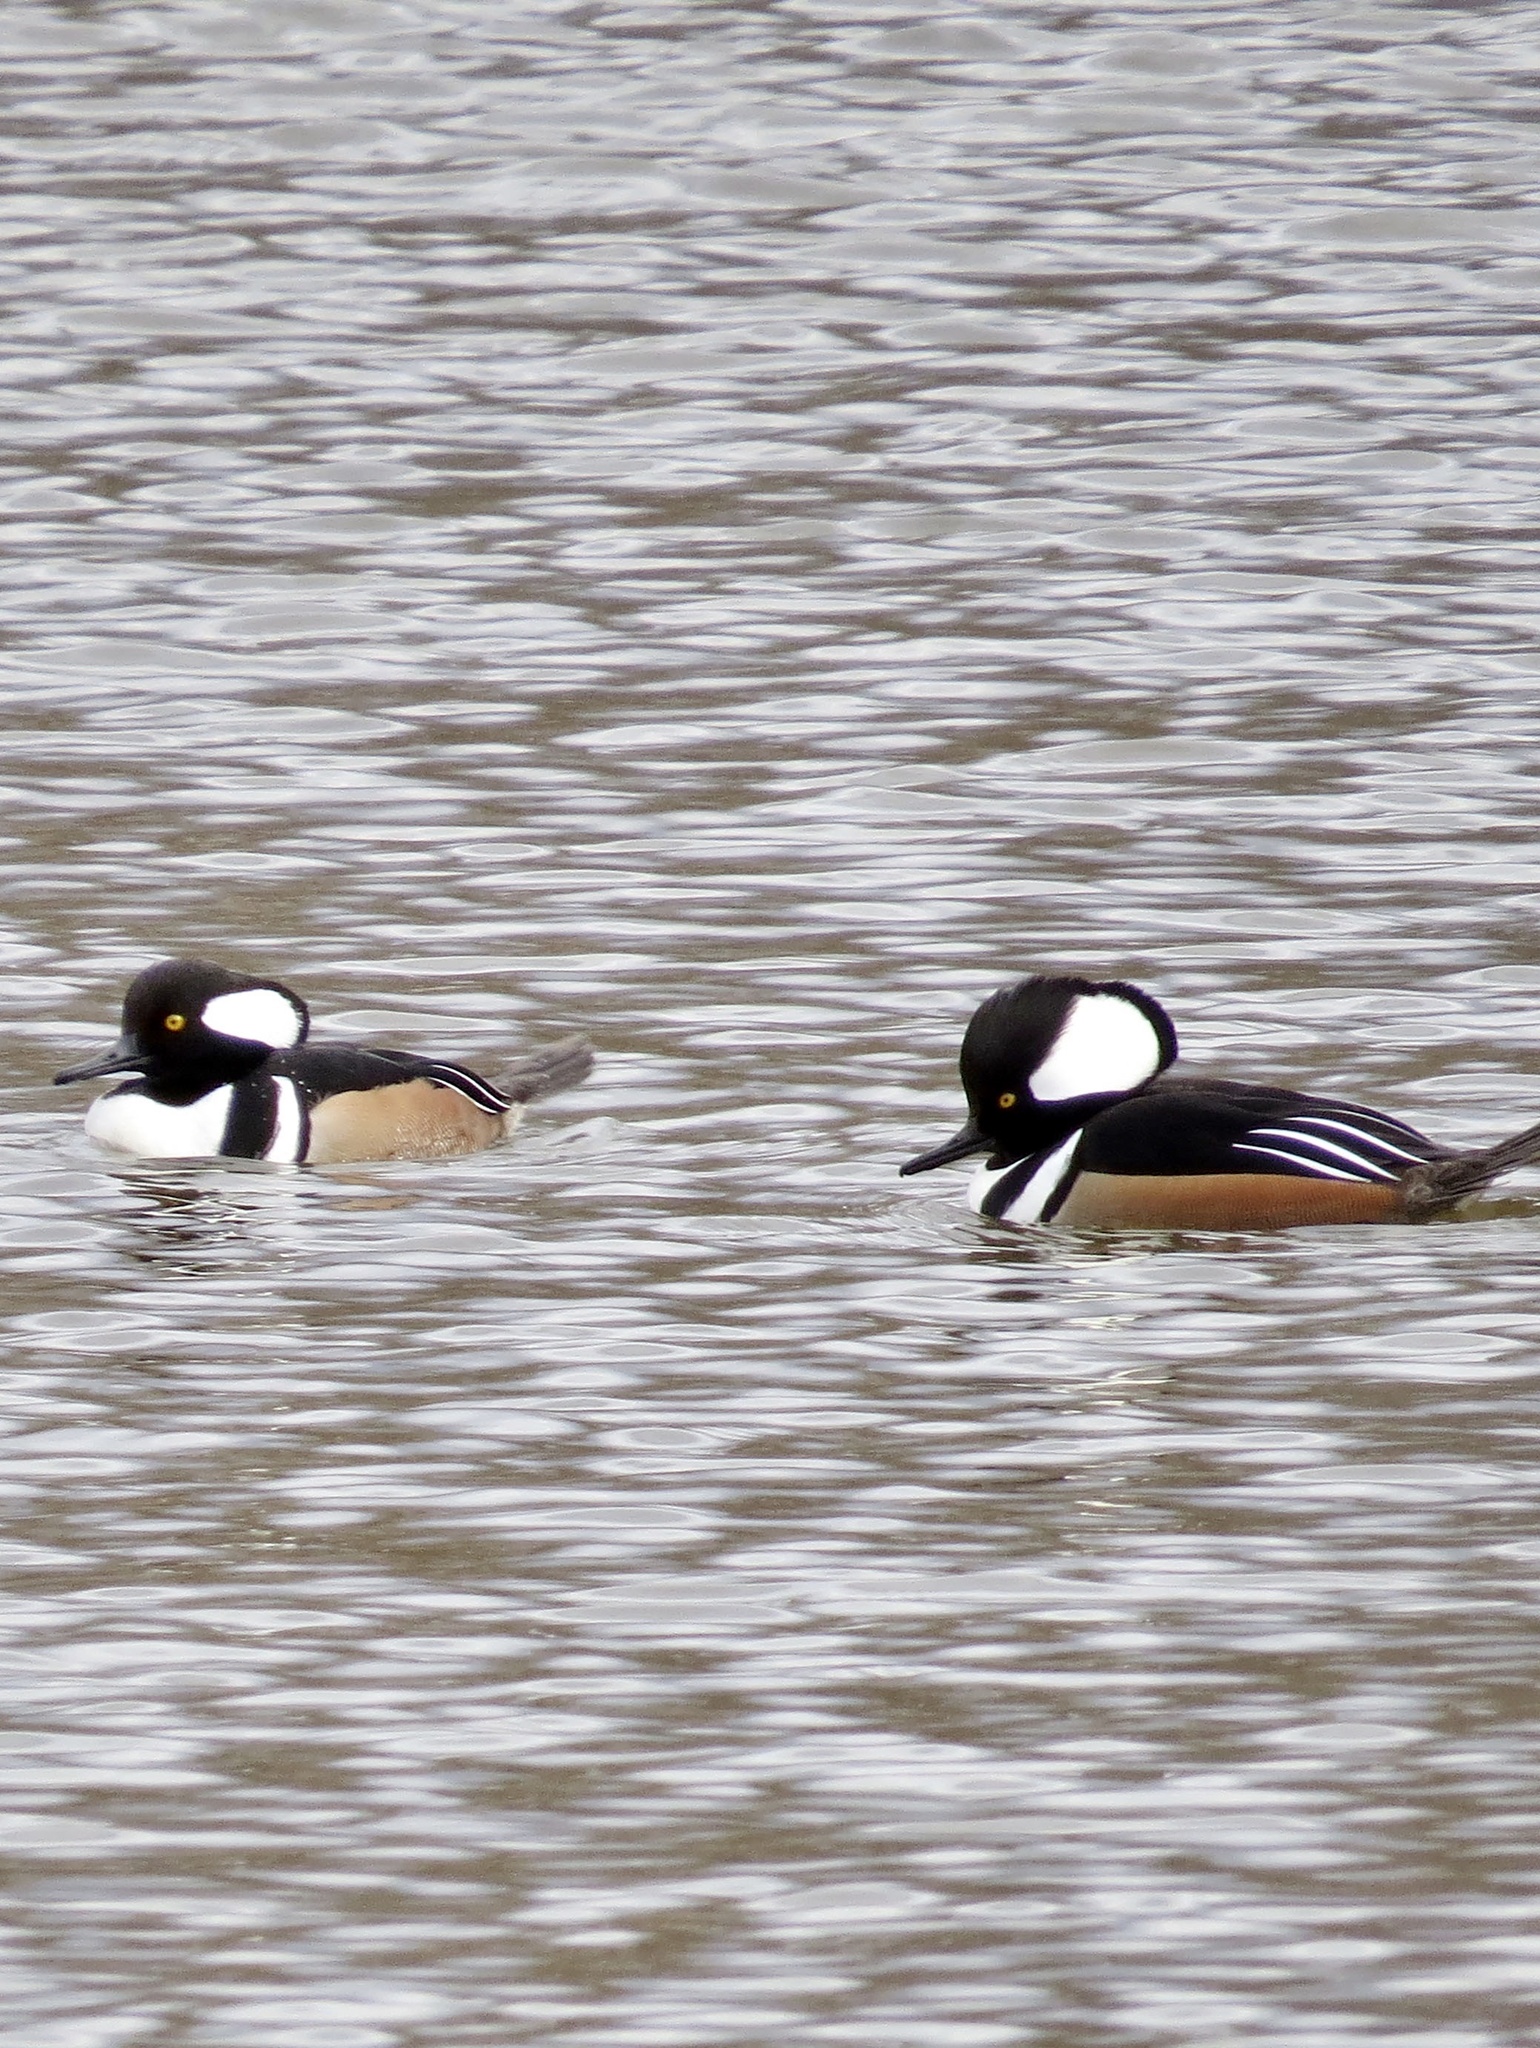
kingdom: Animalia
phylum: Chordata
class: Aves
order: Anseriformes
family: Anatidae
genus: Lophodytes
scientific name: Lophodytes cucullatus
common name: Hooded merganser
